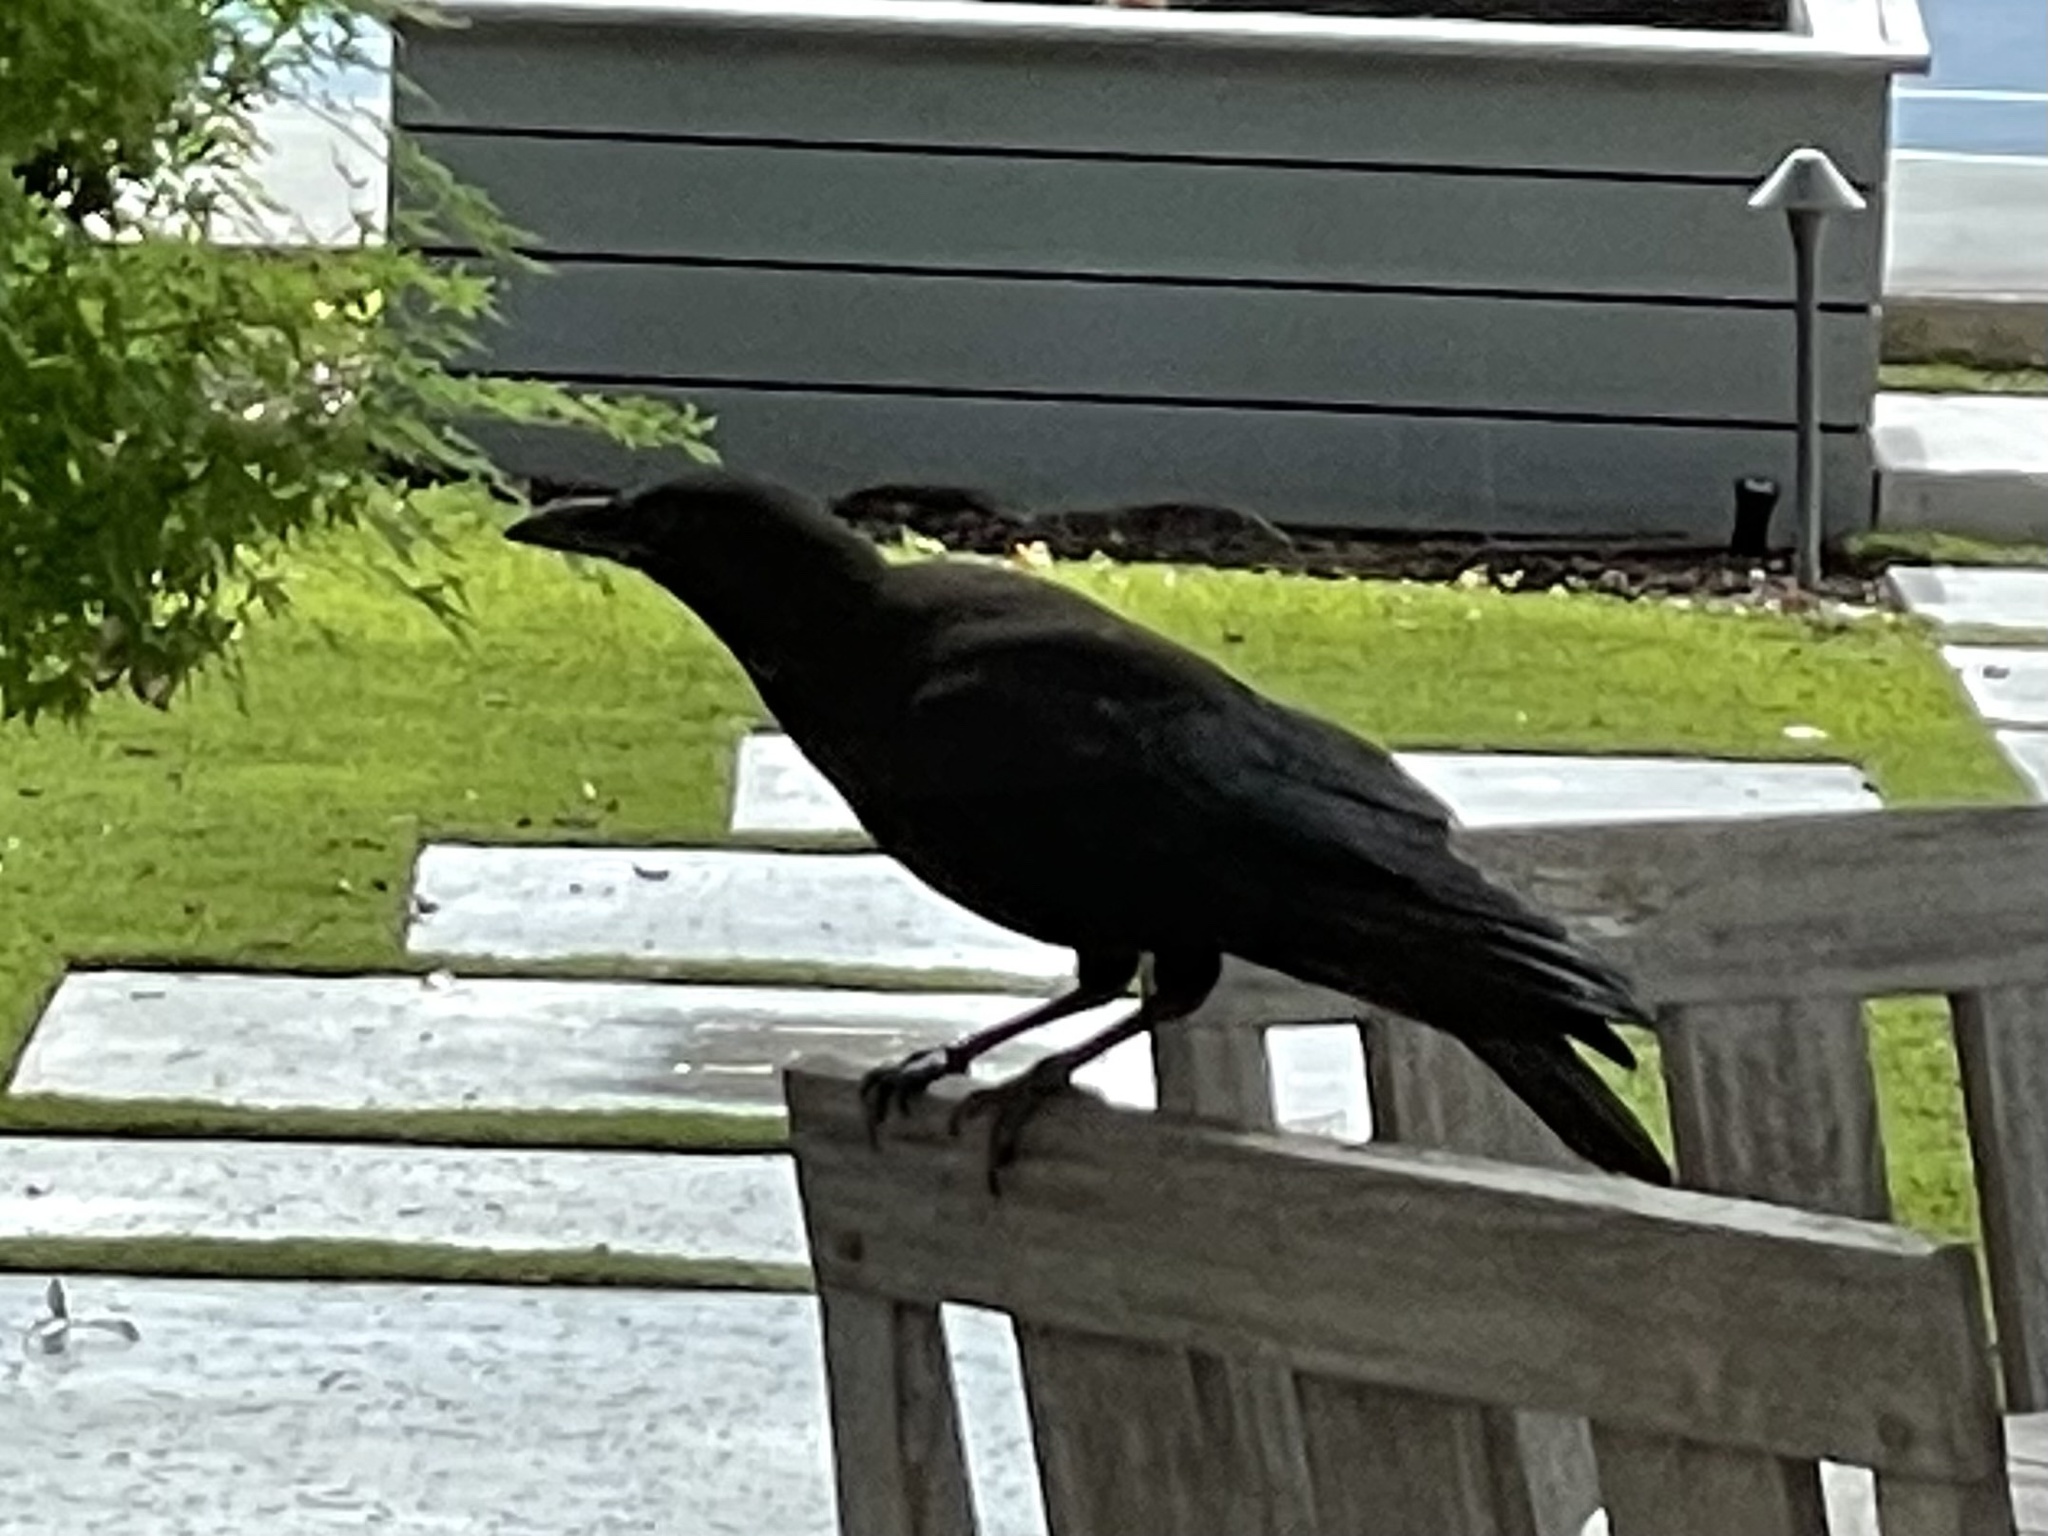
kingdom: Animalia
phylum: Chordata
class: Aves
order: Passeriformes
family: Corvidae
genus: Corvus
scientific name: Corvus brachyrhynchos
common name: American crow
